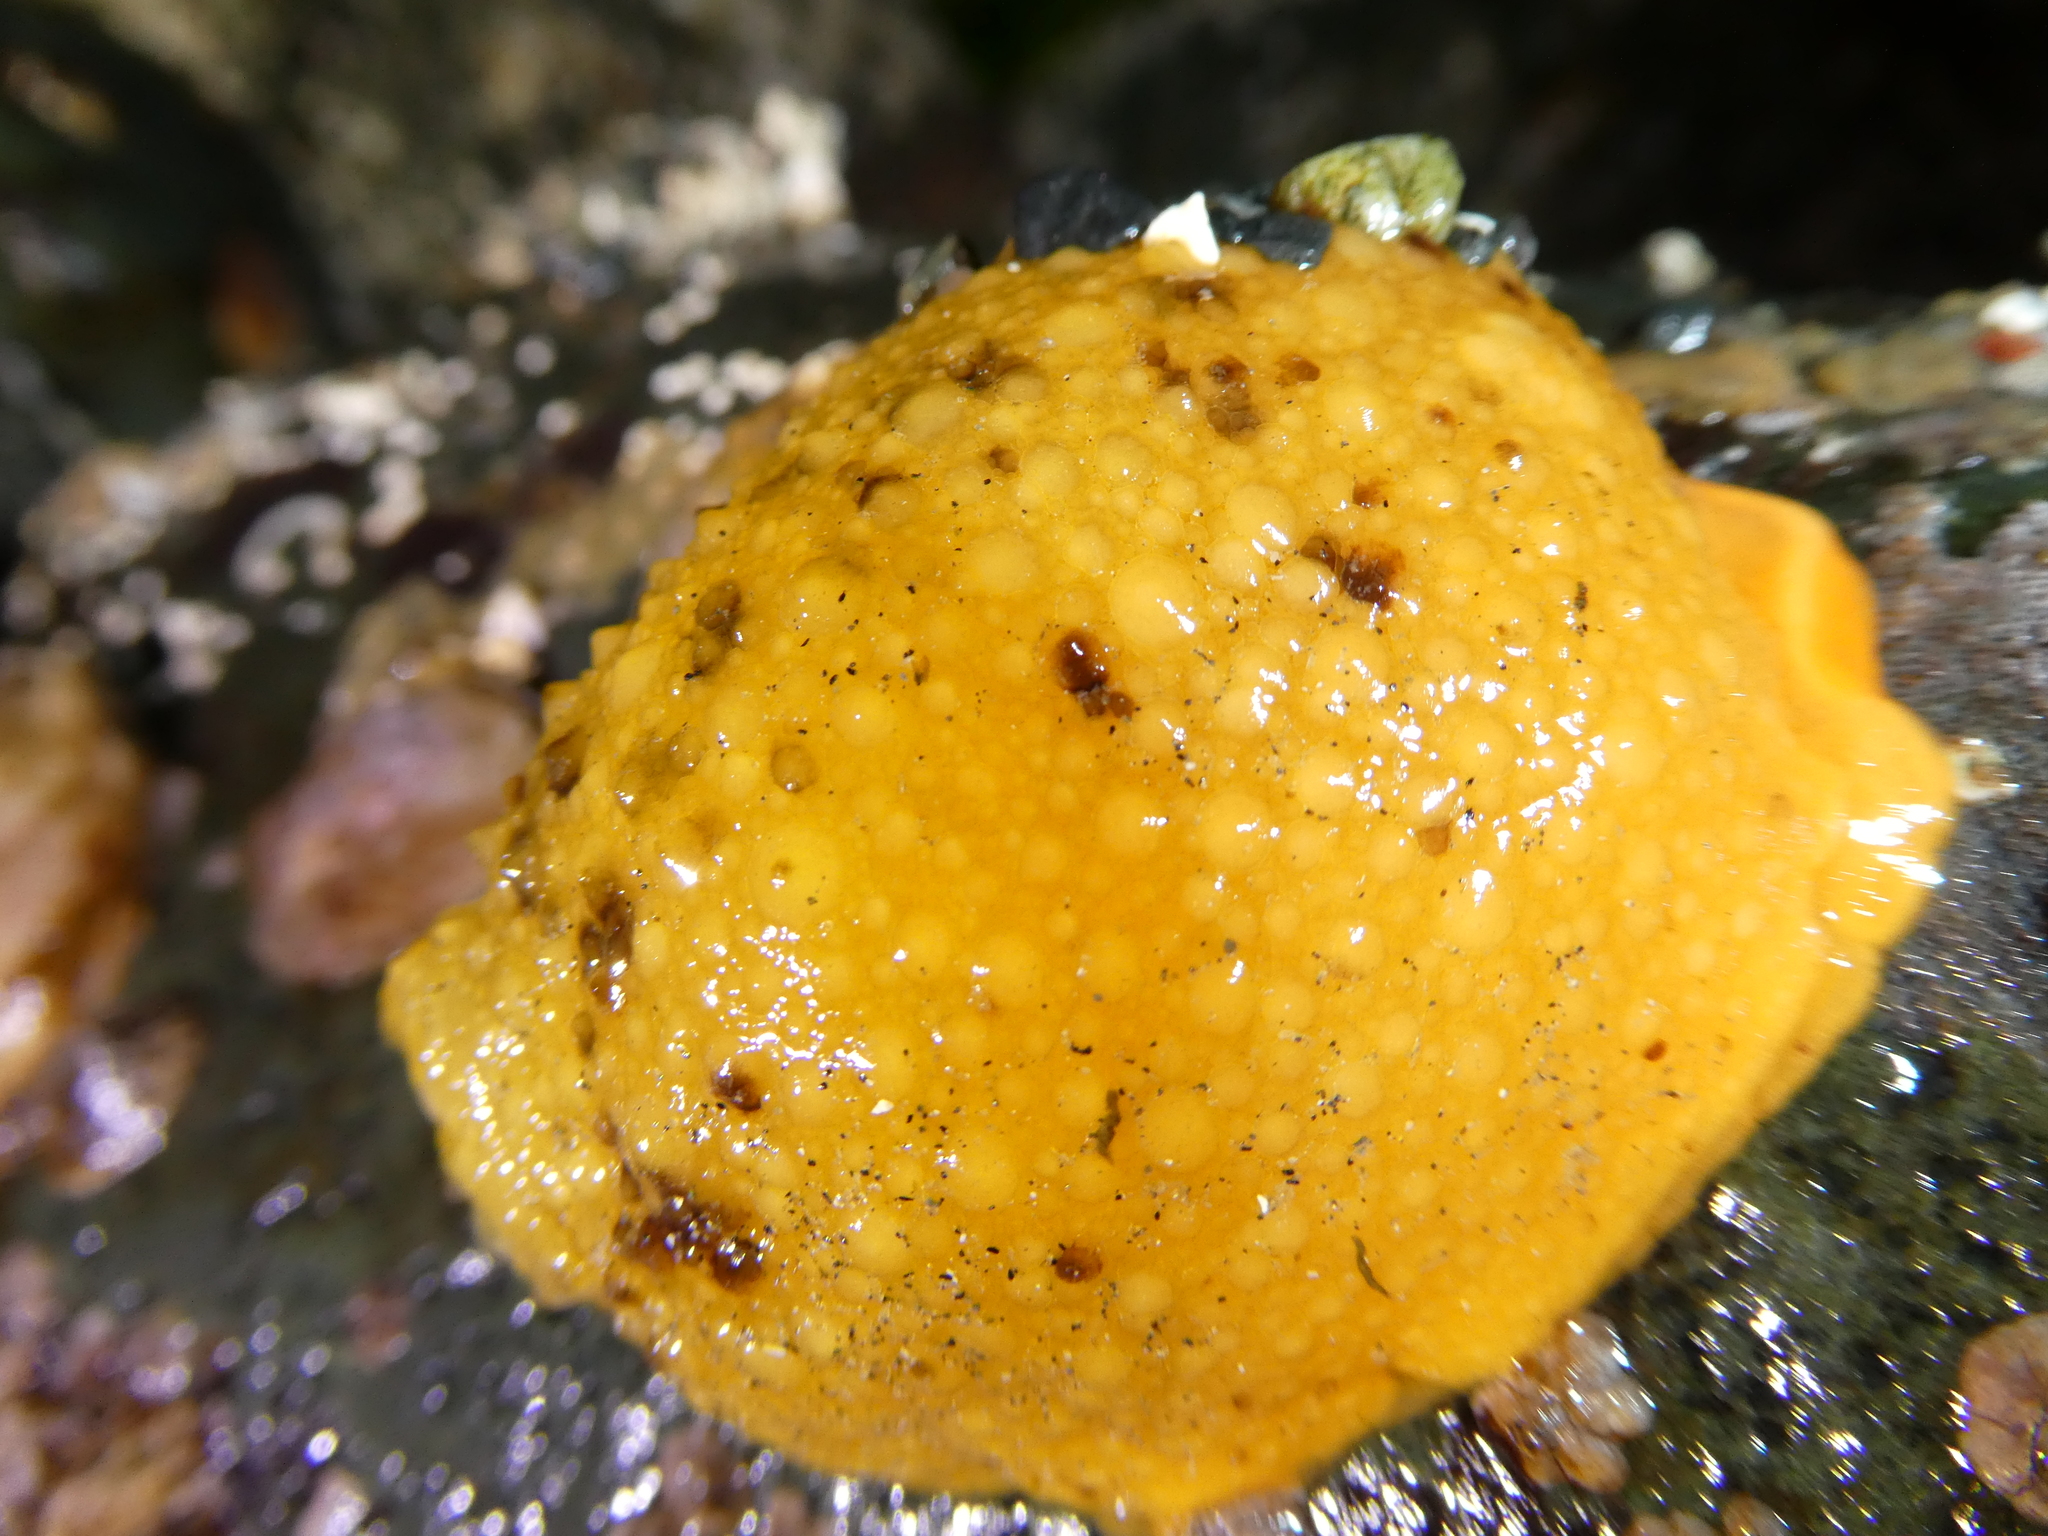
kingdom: Animalia
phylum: Mollusca
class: Gastropoda
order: Nudibranchia
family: Dorididae
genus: Doris
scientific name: Doris montereyensis
